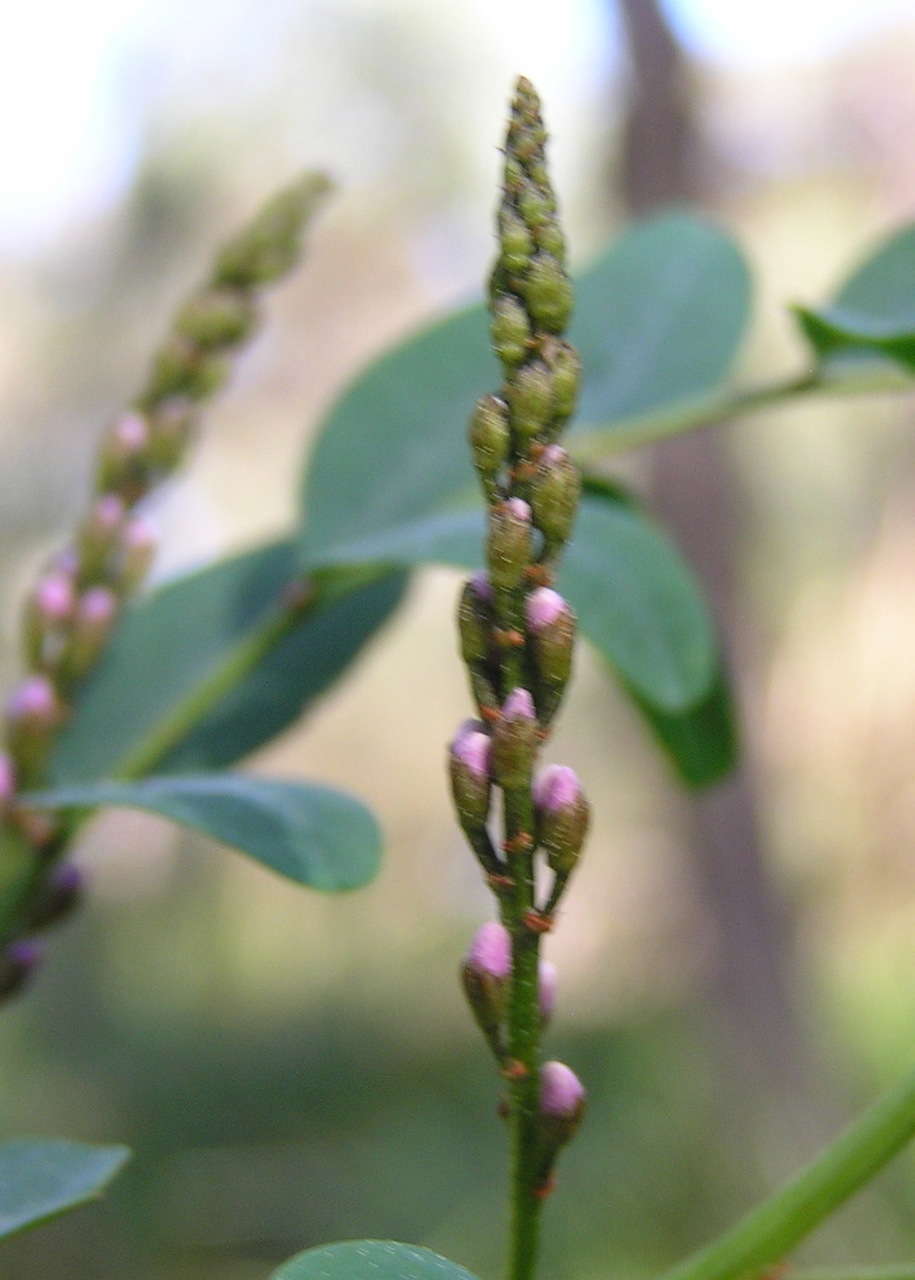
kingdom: Plantae
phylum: Tracheophyta
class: Magnoliopsida
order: Fabales
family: Fabaceae
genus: Indigofera
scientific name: Indigofera australis
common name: Australian indigo
